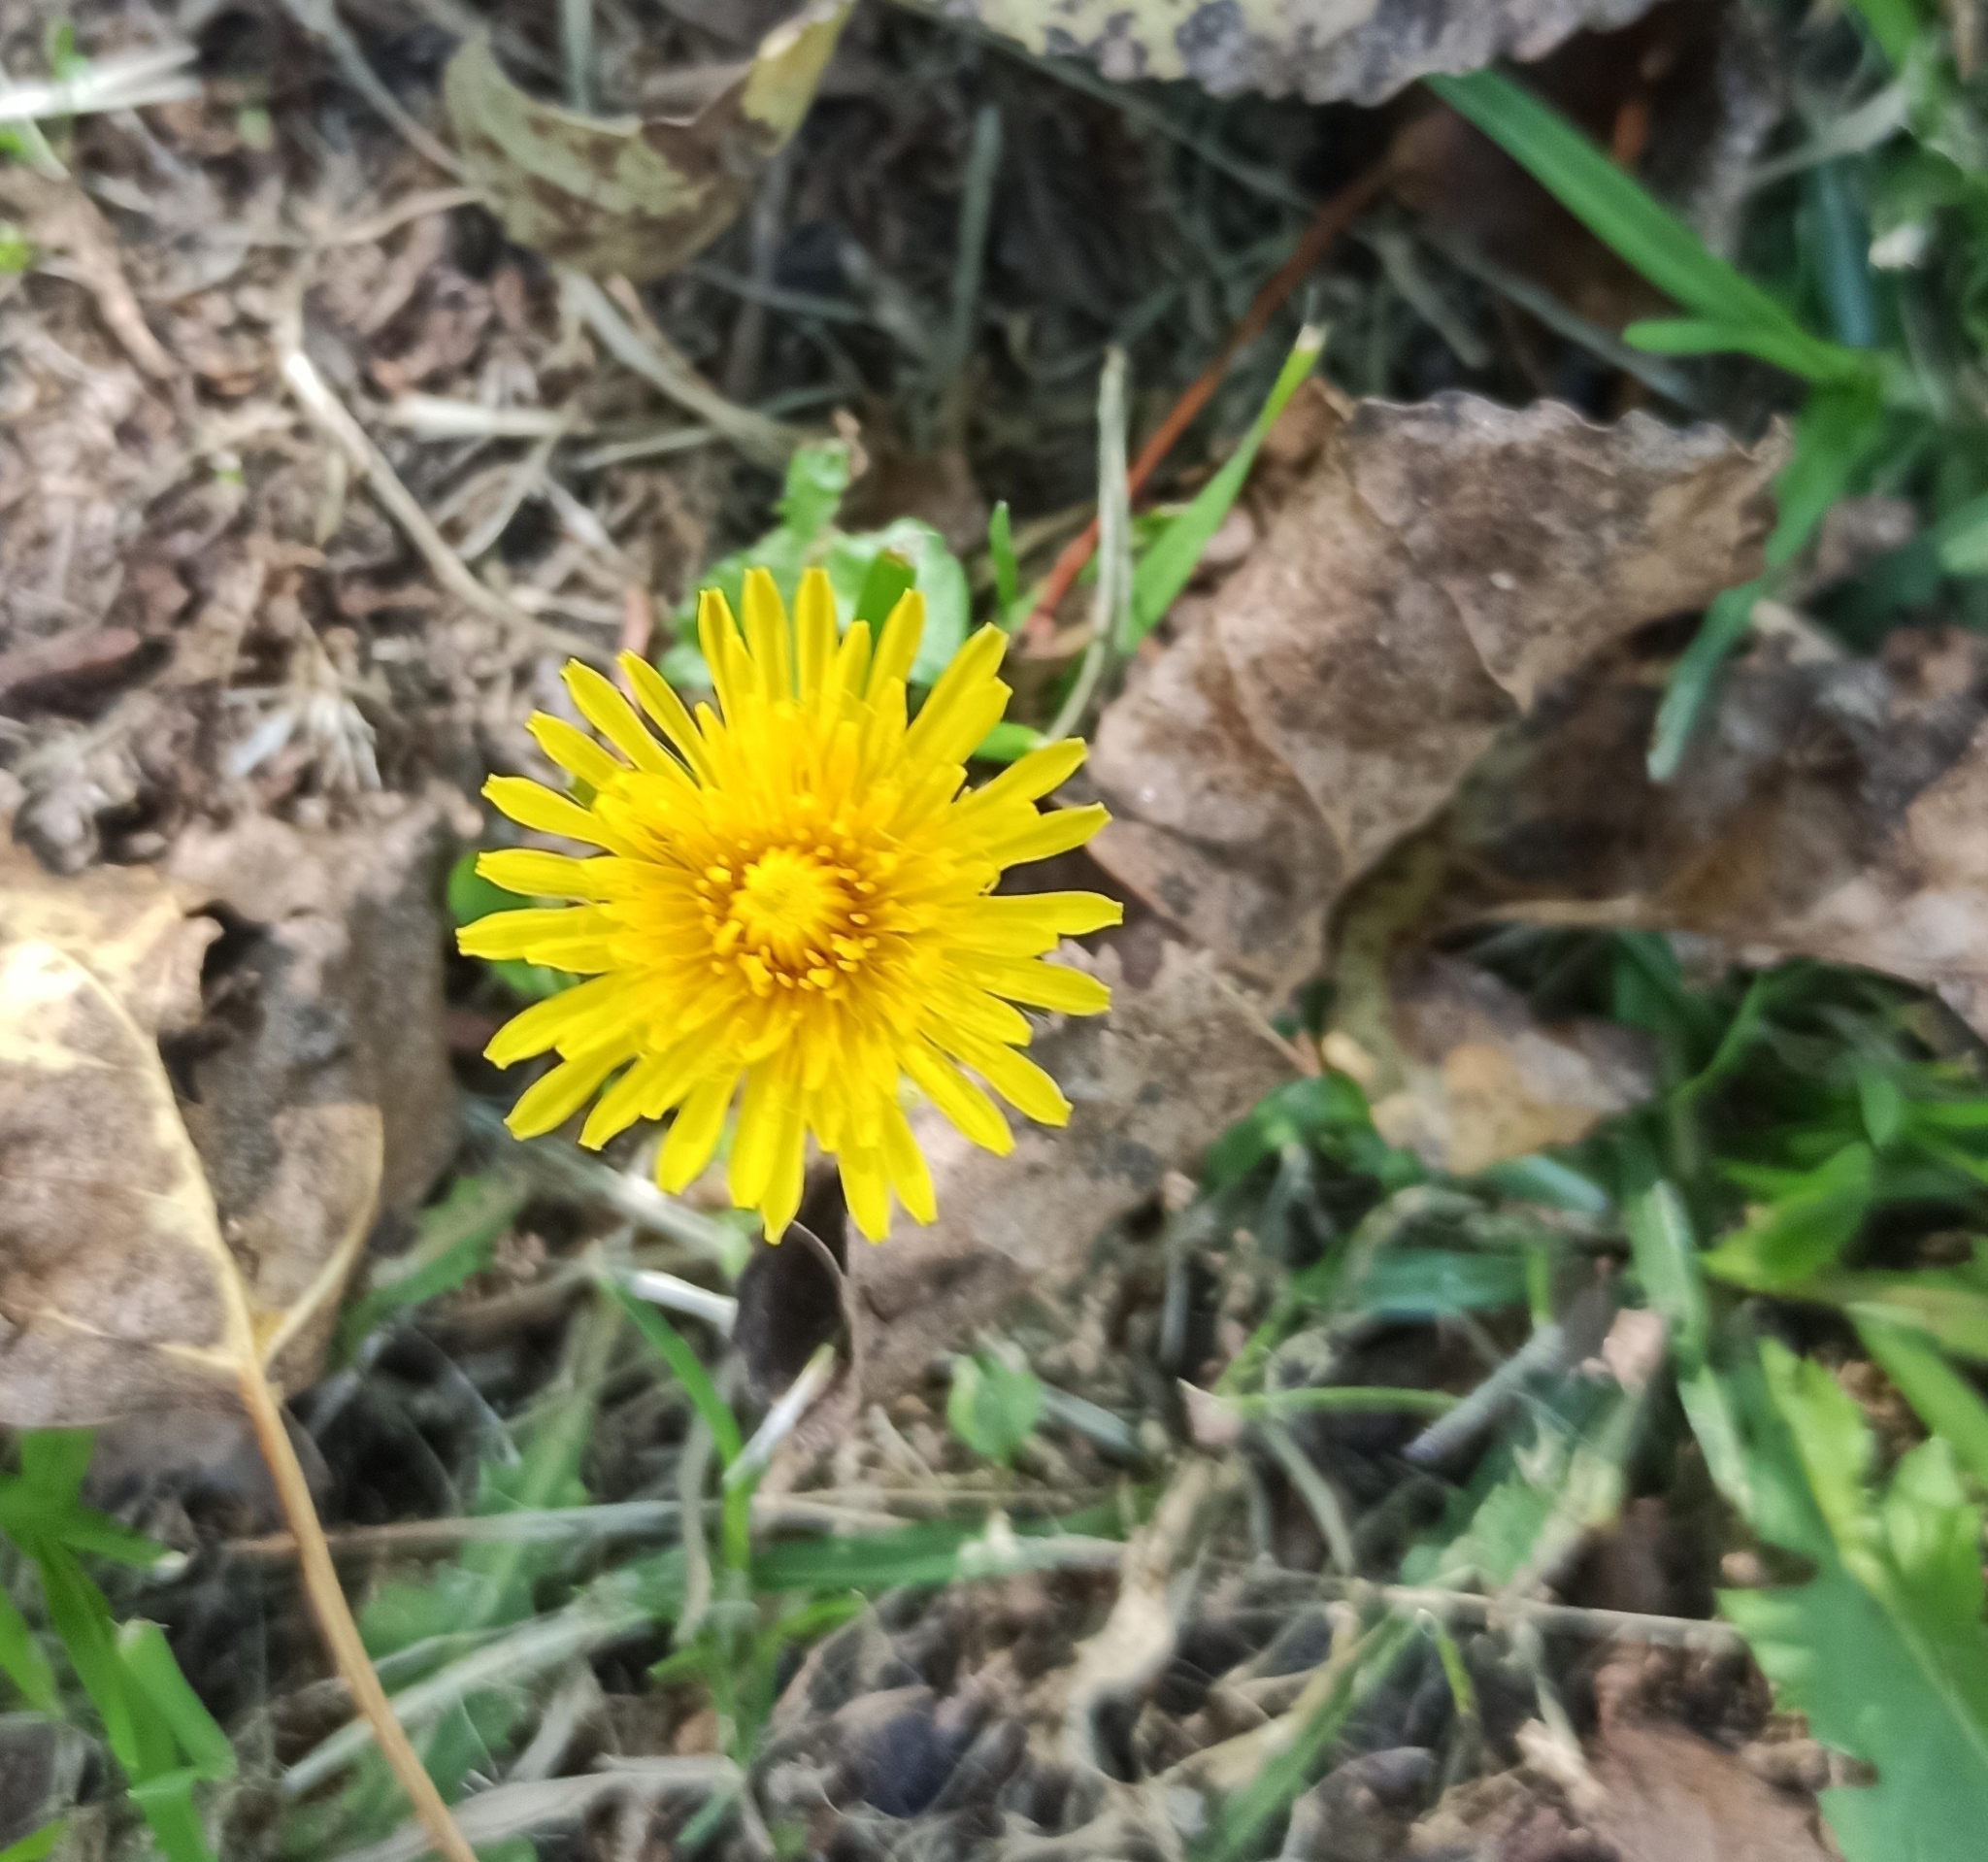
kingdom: Plantae
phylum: Tracheophyta
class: Magnoliopsida
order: Asterales
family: Asteraceae
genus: Taraxacum
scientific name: Taraxacum officinale
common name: Common dandelion
